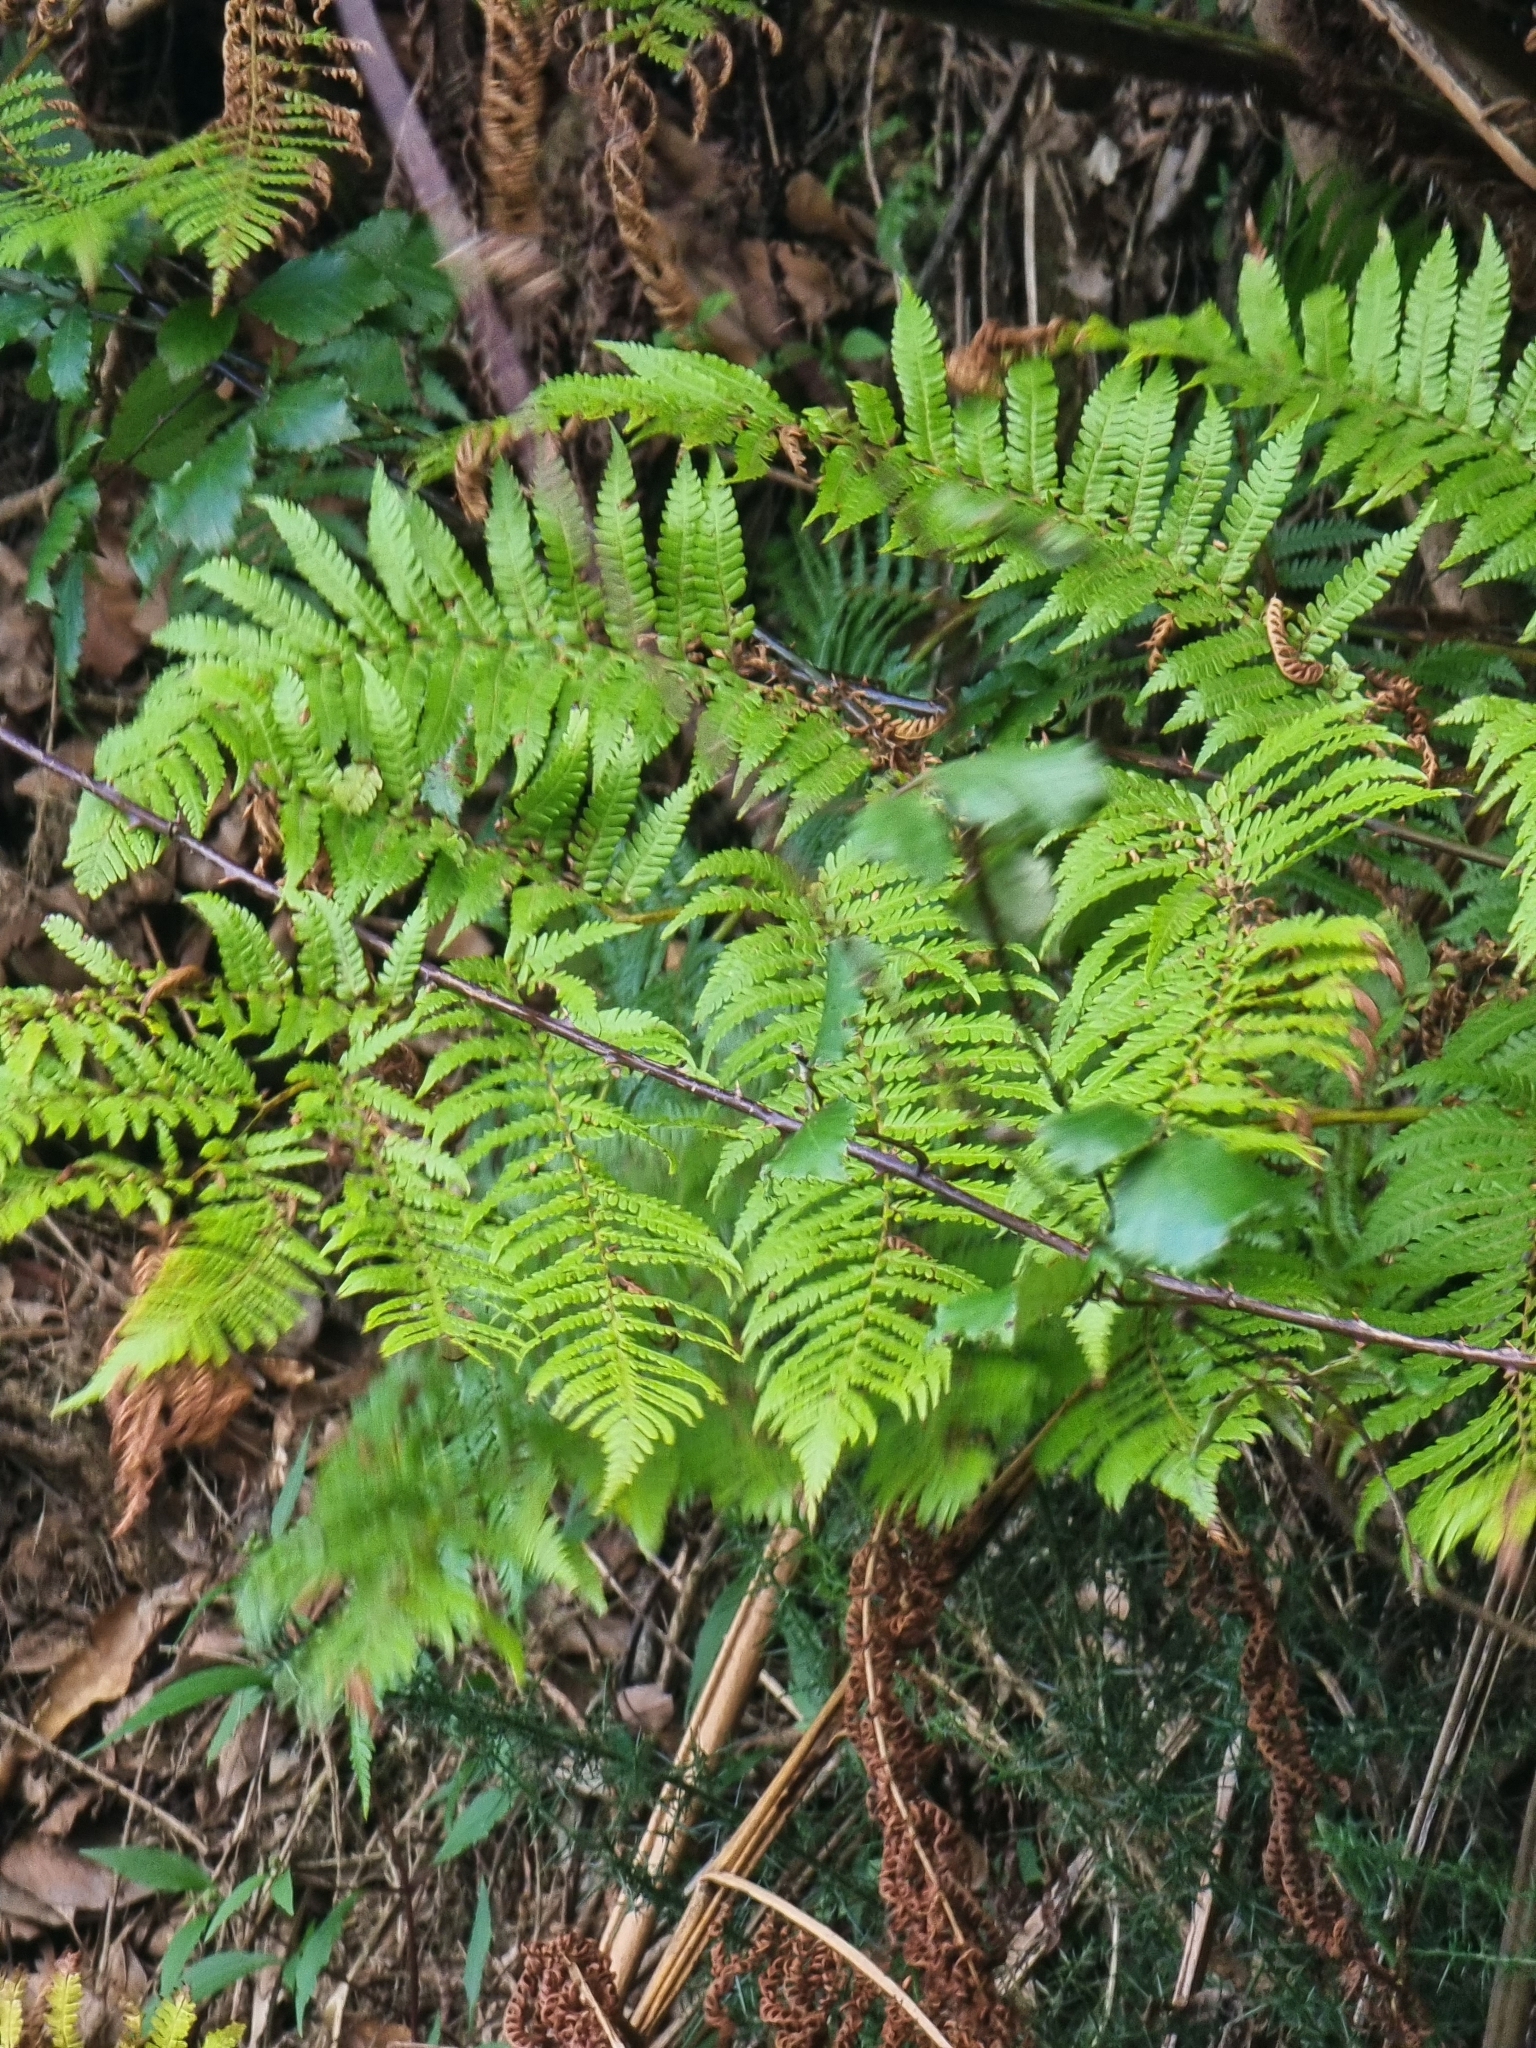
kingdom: Plantae
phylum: Tracheophyta
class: Polypodiopsida
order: Cyatheales
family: Cyatheaceae
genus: Sphaeropteris
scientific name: Sphaeropteris cooperi
